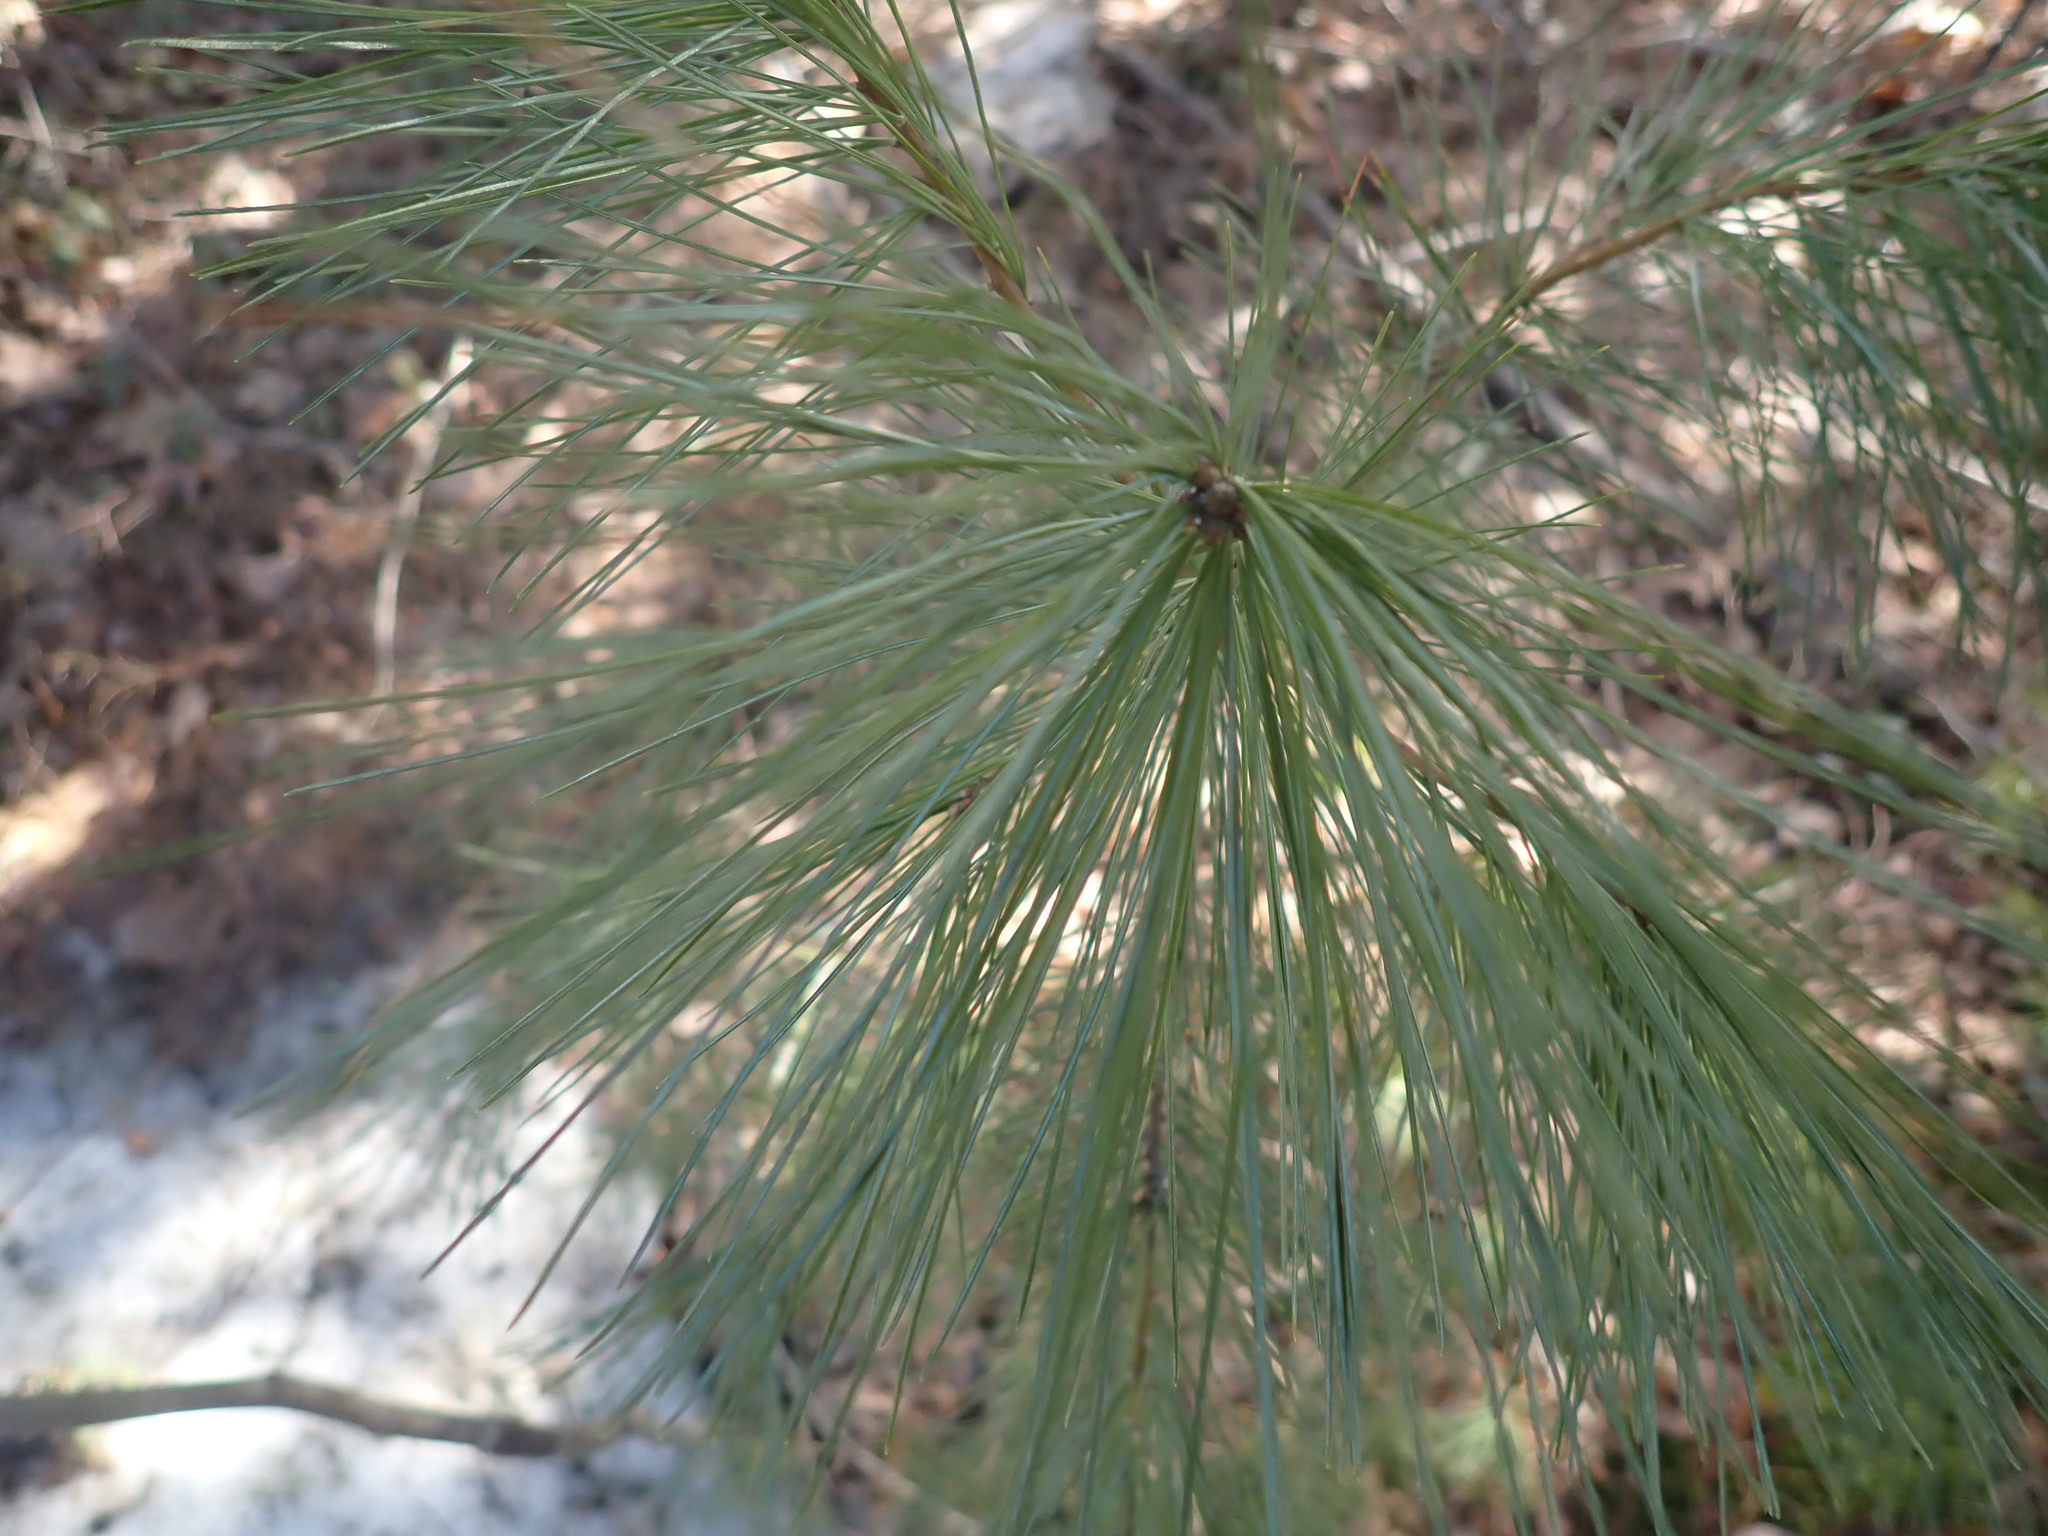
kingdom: Plantae
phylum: Tracheophyta
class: Pinopsida
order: Pinales
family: Pinaceae
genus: Pinus
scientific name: Pinus strobus
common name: Weymouth pine
